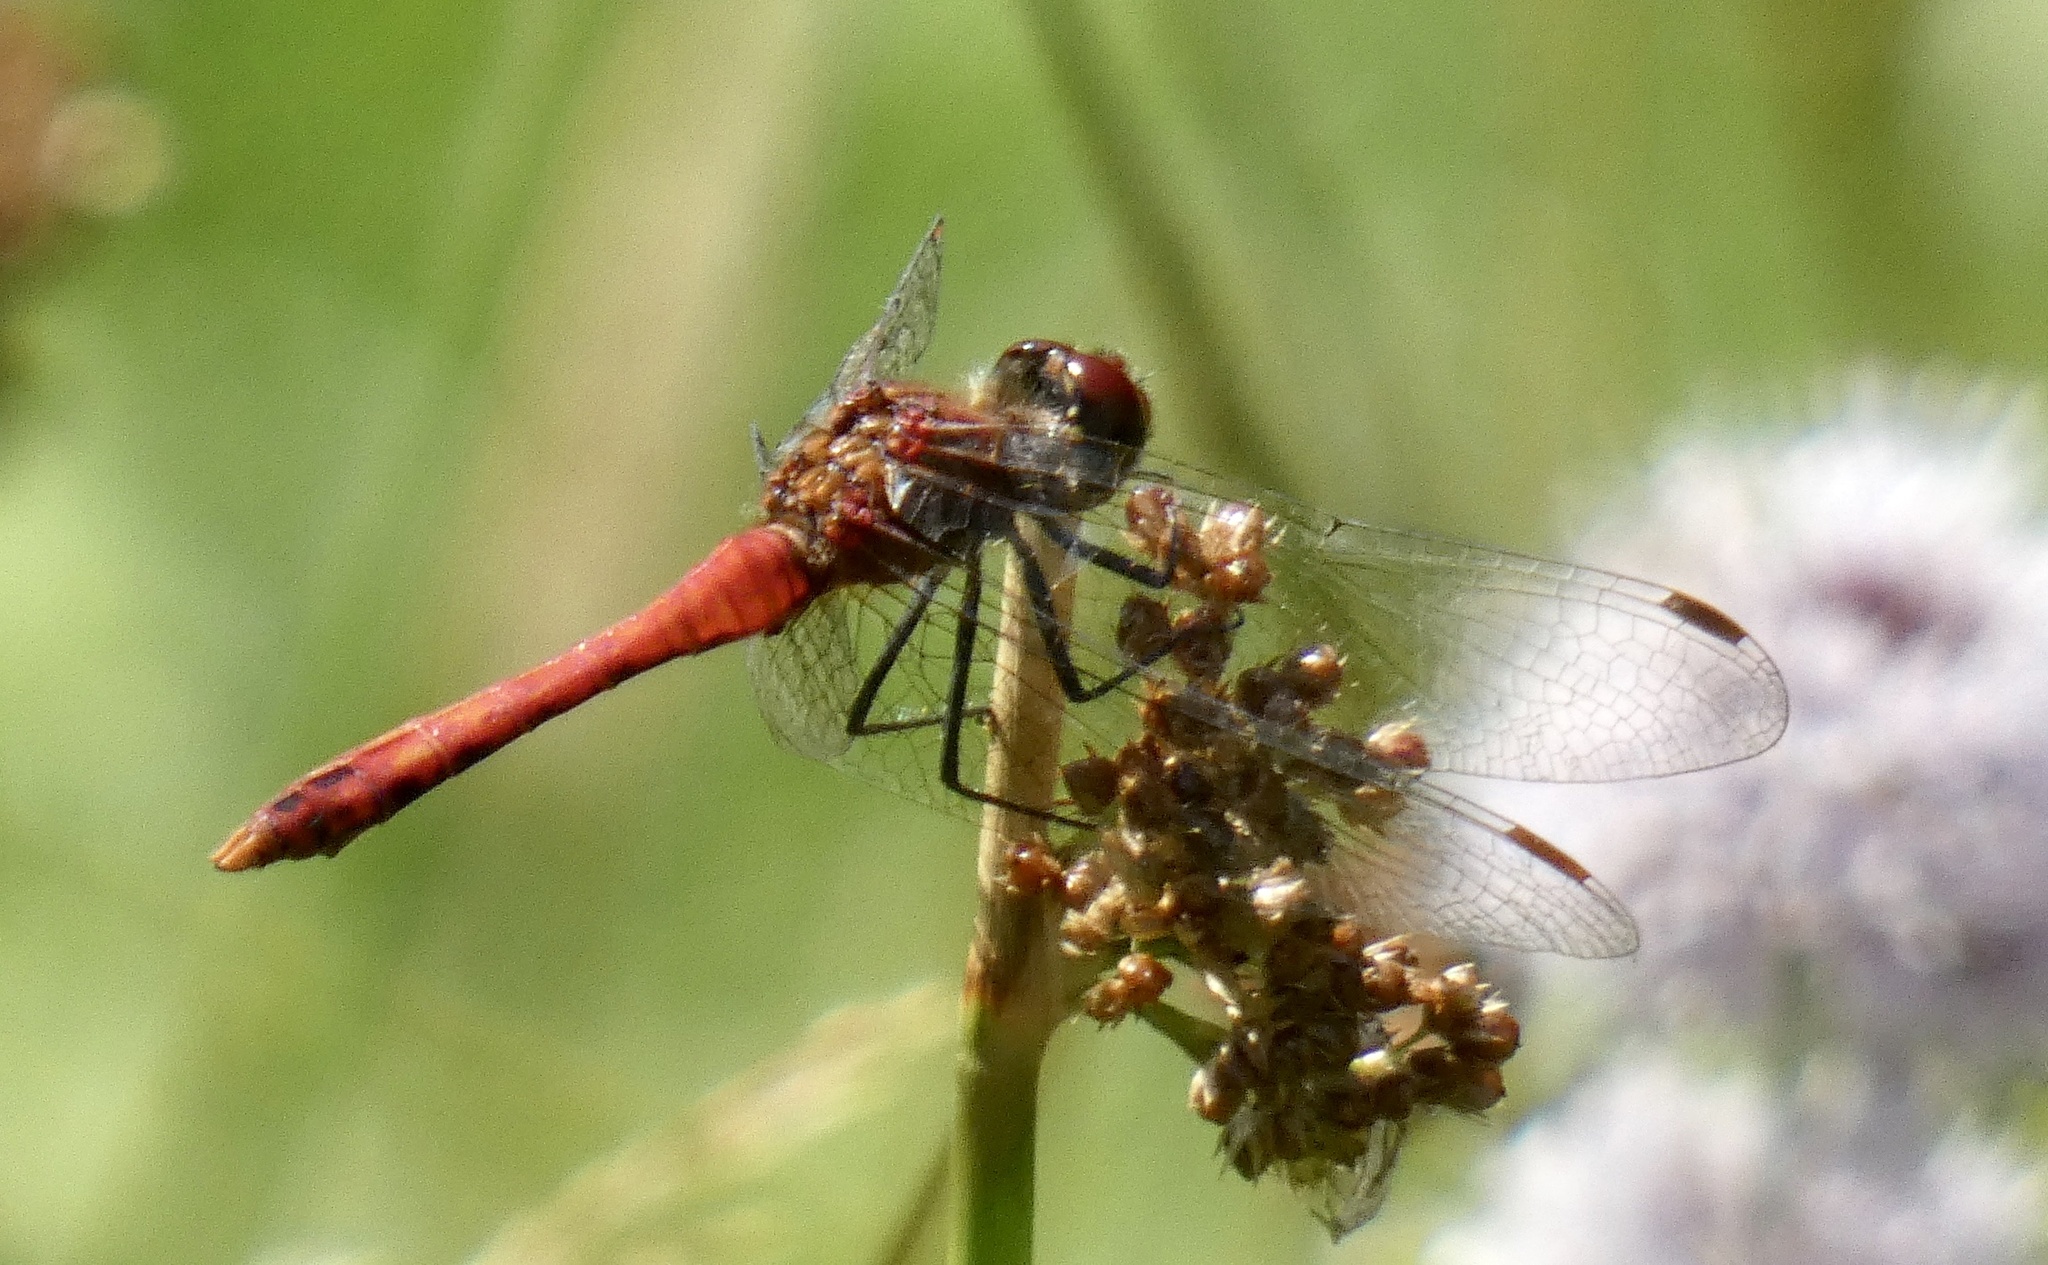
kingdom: Animalia
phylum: Arthropoda
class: Insecta
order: Odonata
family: Libellulidae
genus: Sympetrum
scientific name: Sympetrum sanguineum
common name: Ruddy darter
